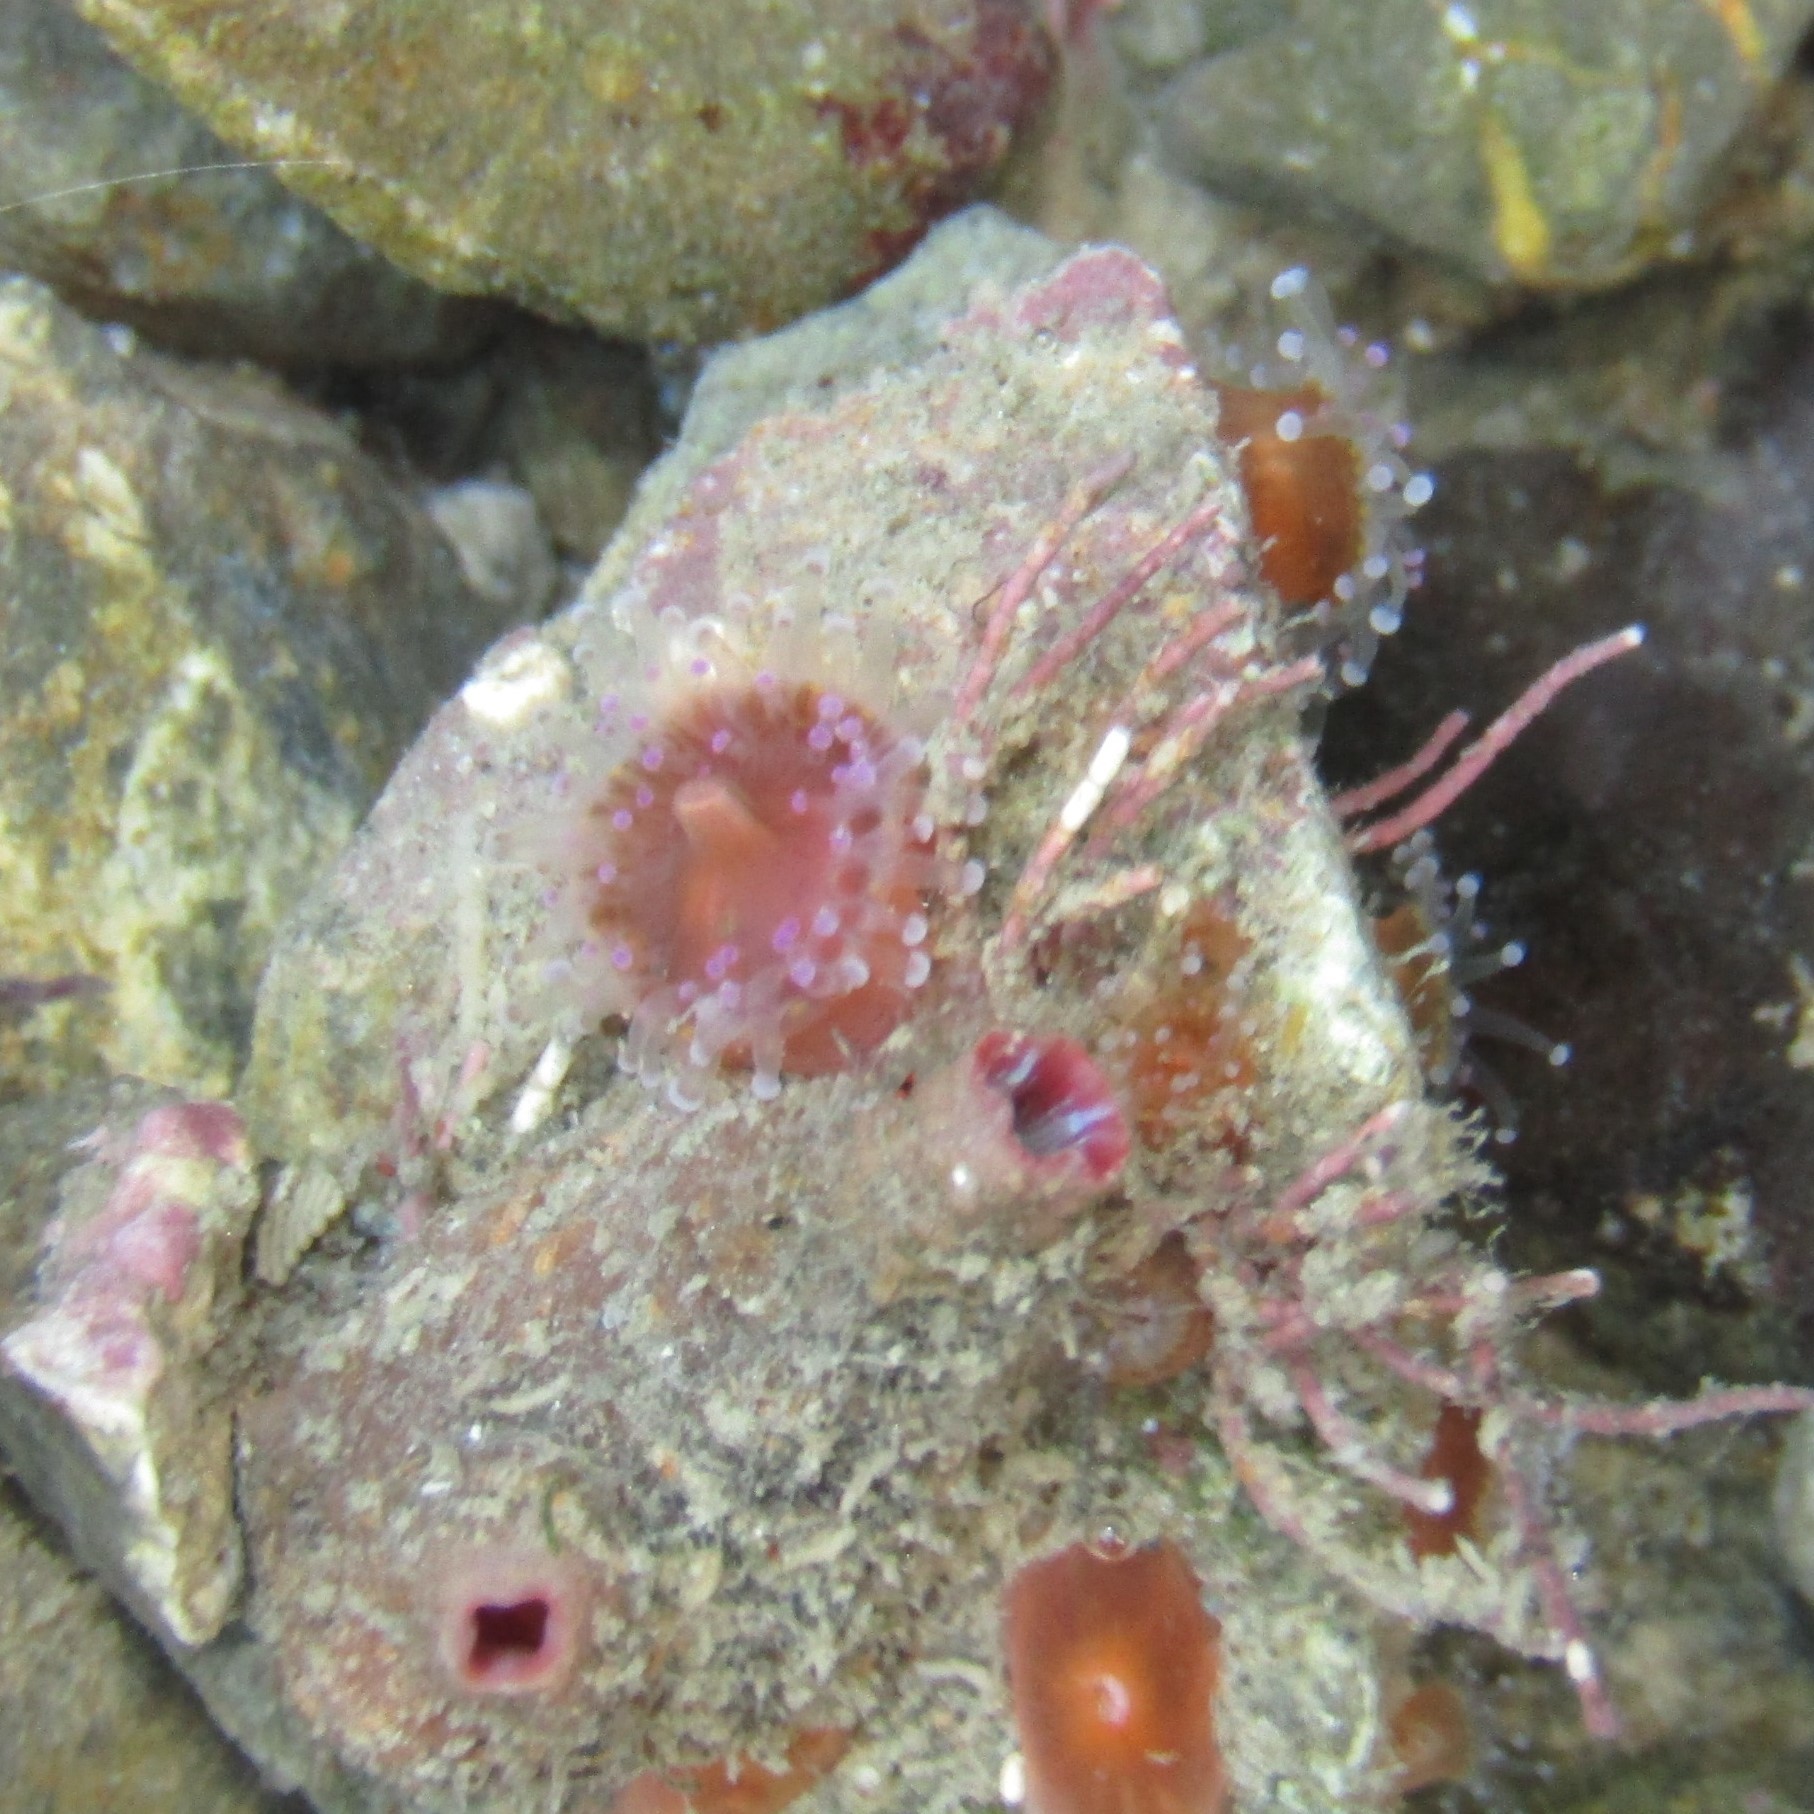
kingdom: Animalia
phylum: Cnidaria
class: Anthozoa
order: Corallimorpharia
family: Corallimorphidae
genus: Corynactis
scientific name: Corynactis australis
